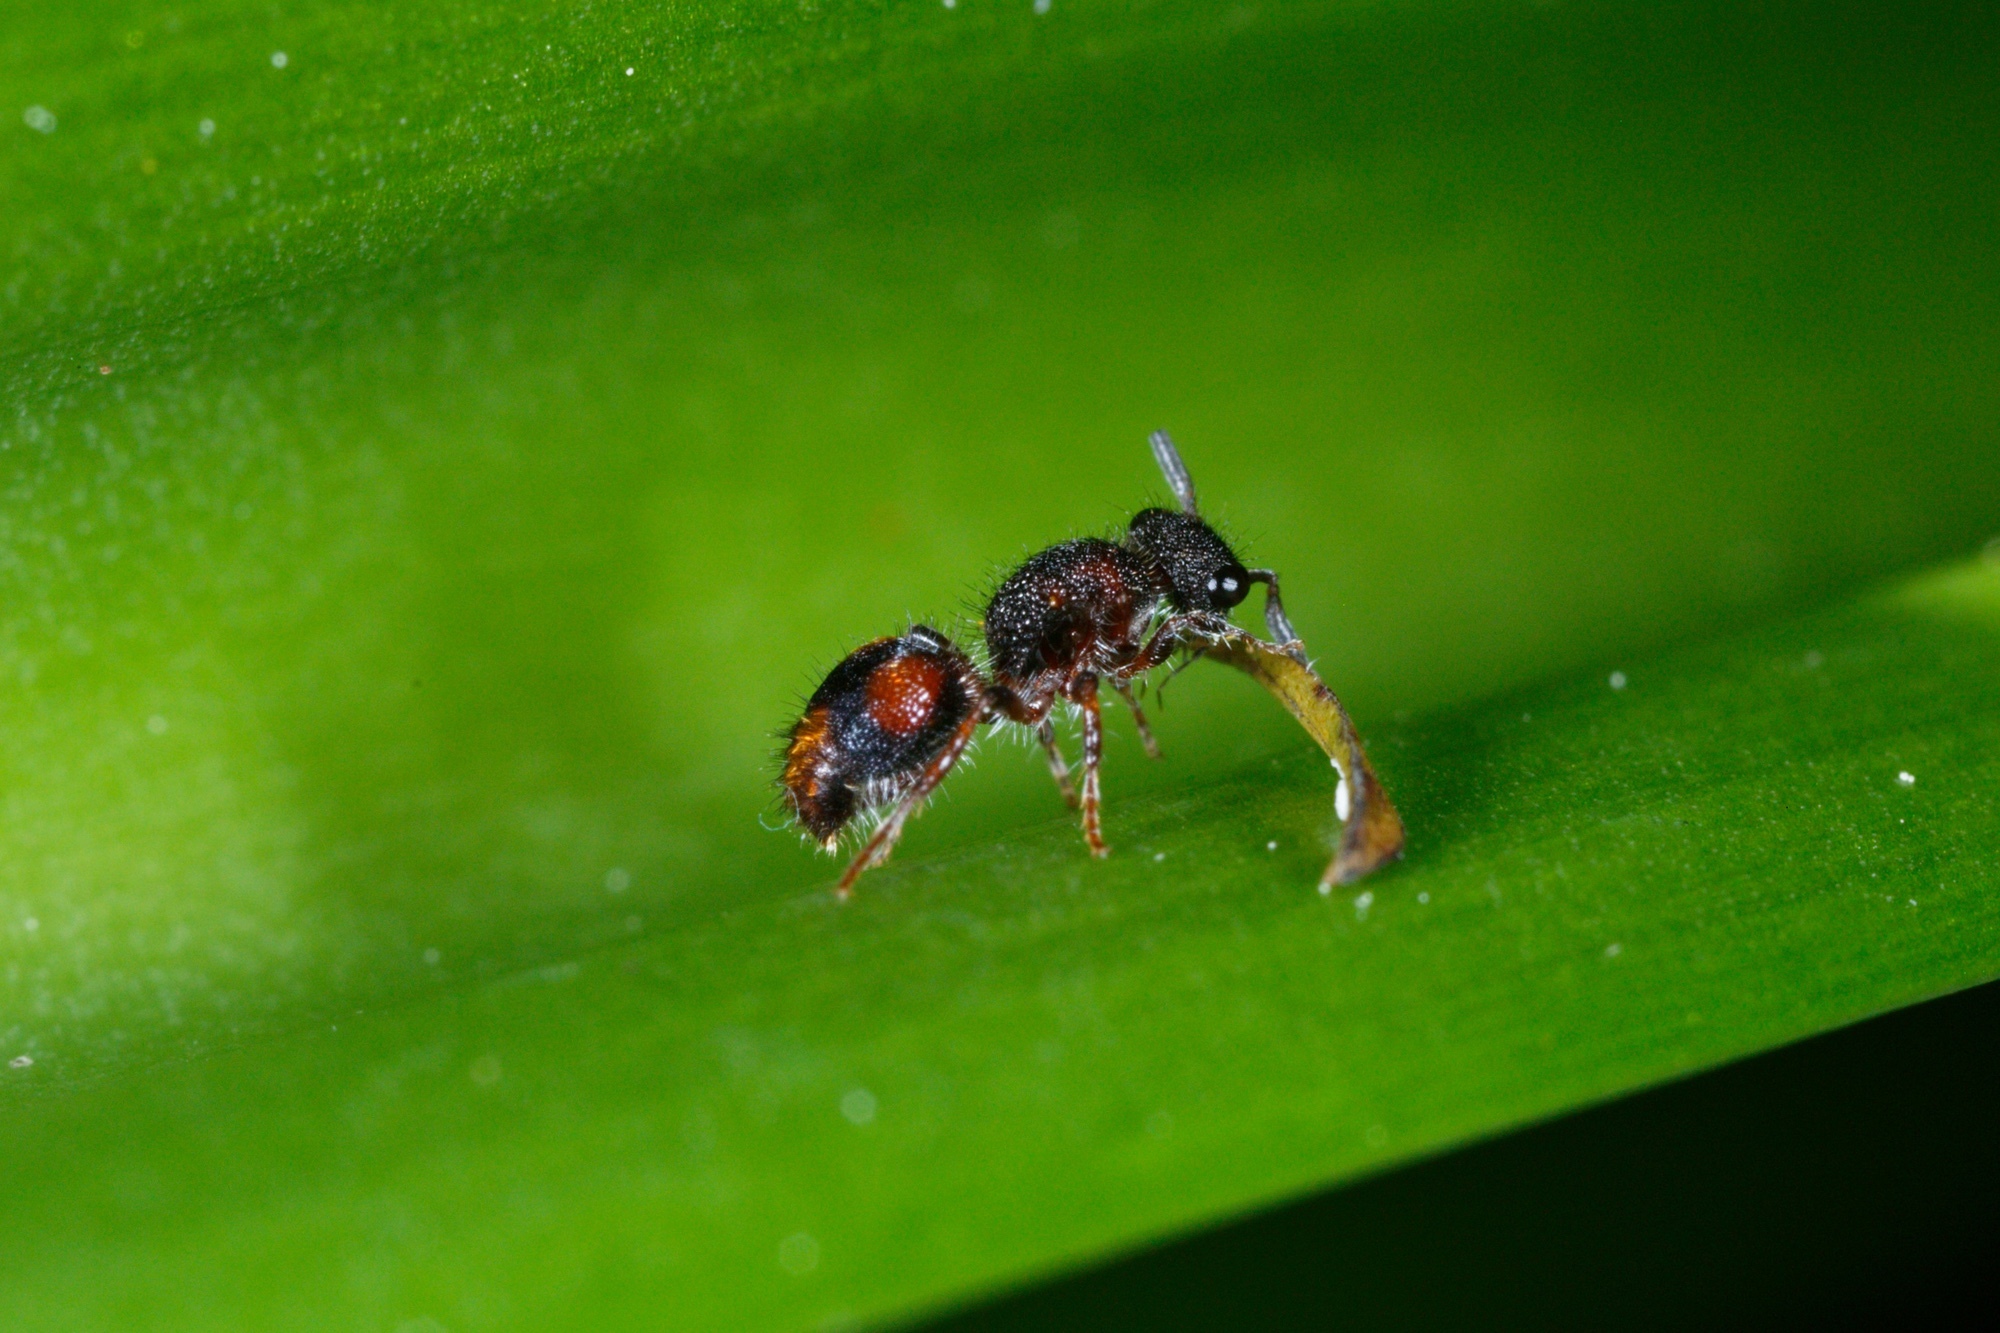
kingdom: Animalia
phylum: Arthropoda
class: Insecta
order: Hymenoptera
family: Mutillidae
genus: Ephutomorpha
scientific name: Ephutomorpha bivulnerata
